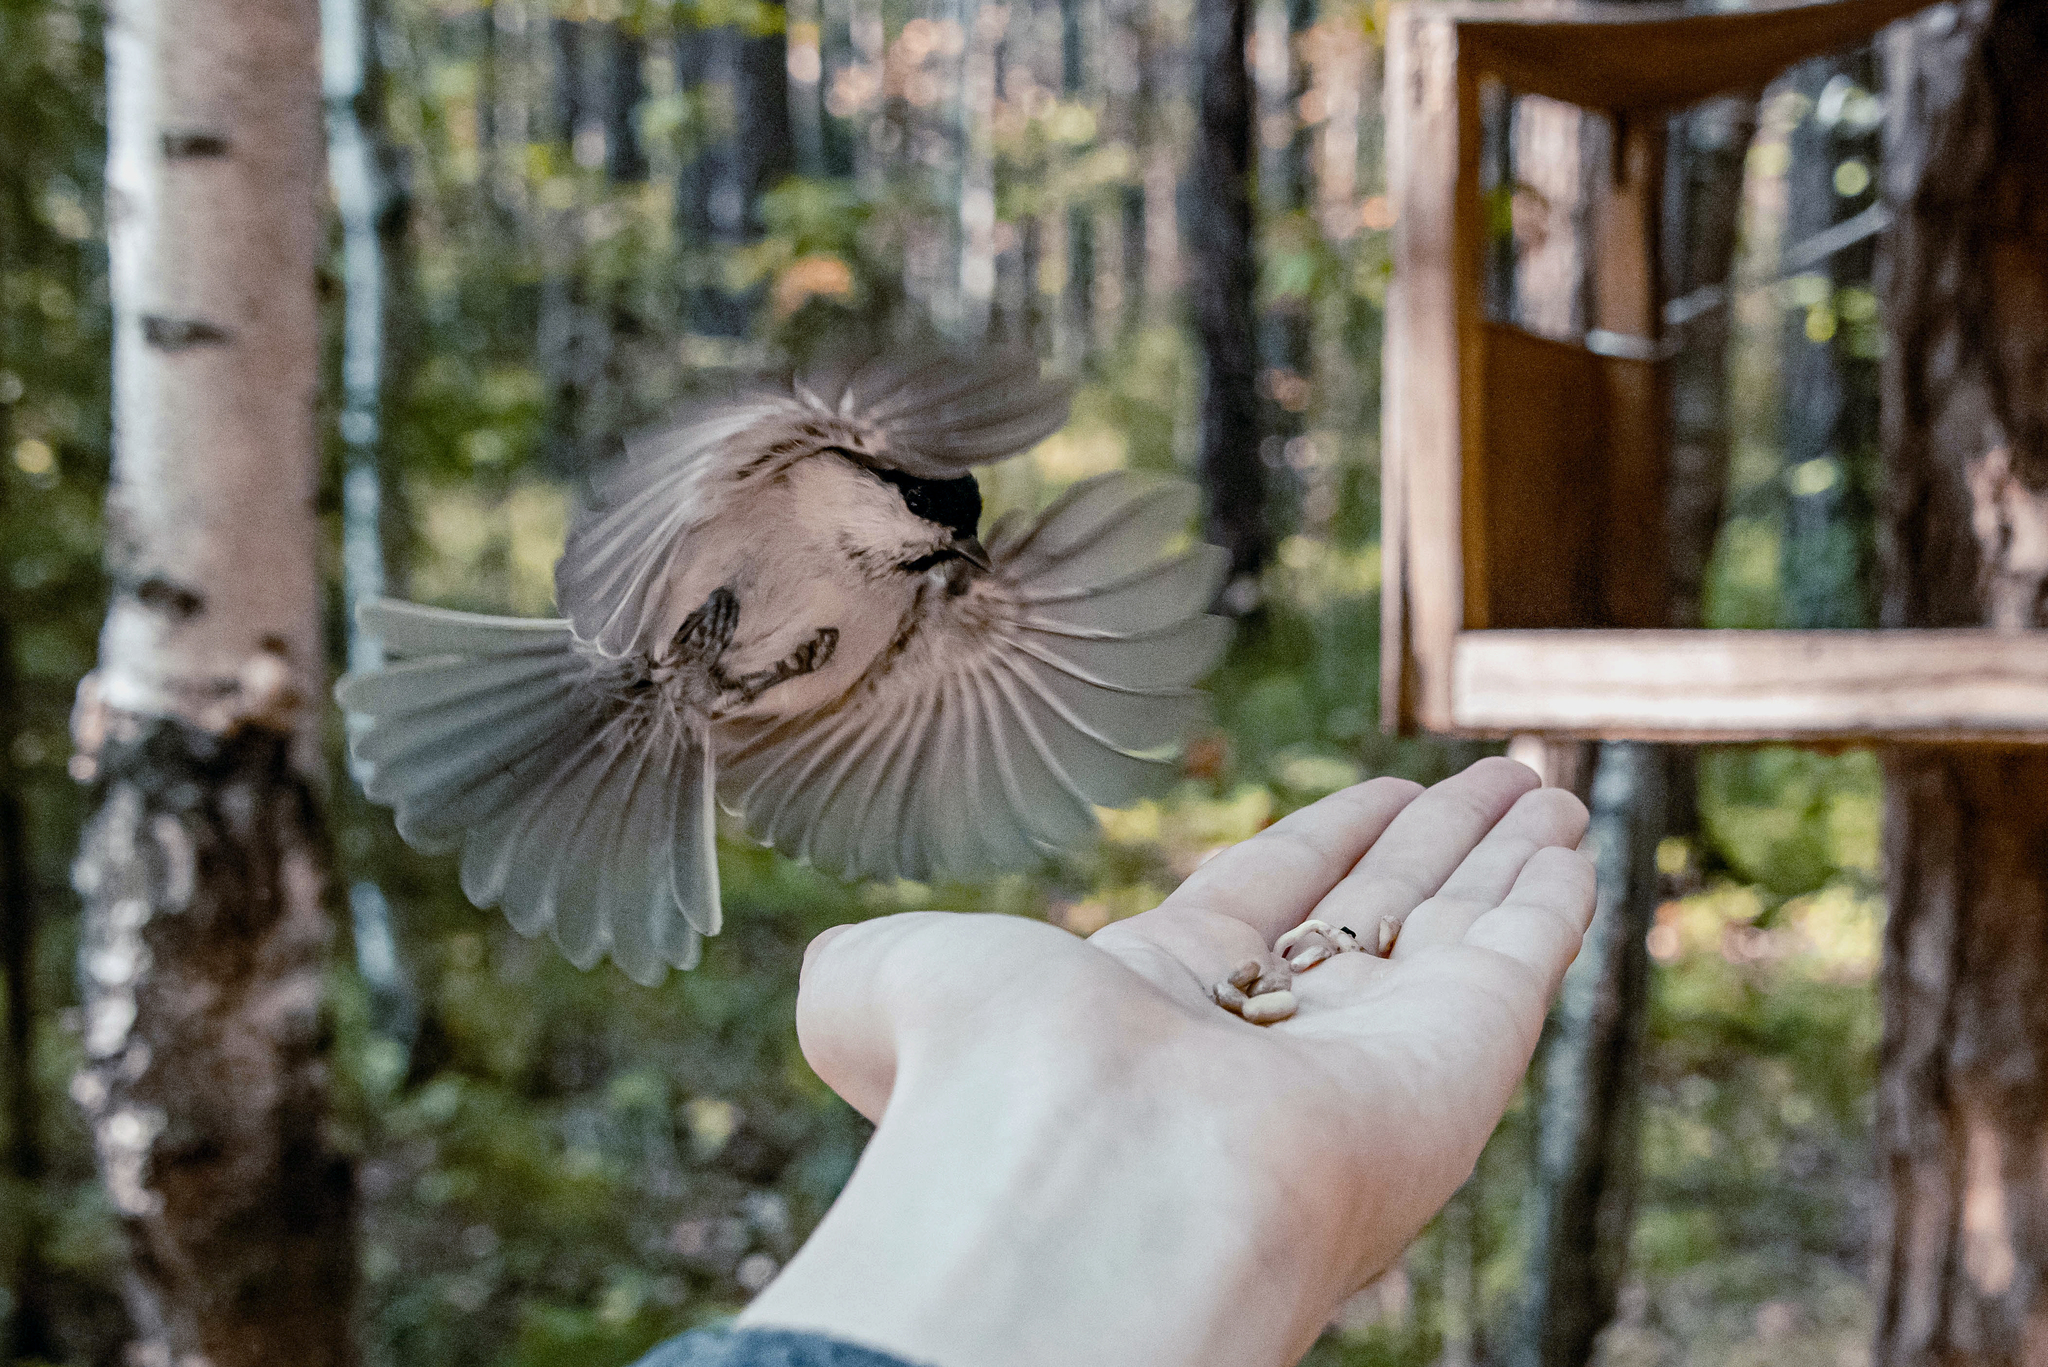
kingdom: Animalia
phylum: Chordata
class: Aves
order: Passeriformes
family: Paridae
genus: Poecile
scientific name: Poecile montanus
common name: Willow tit
